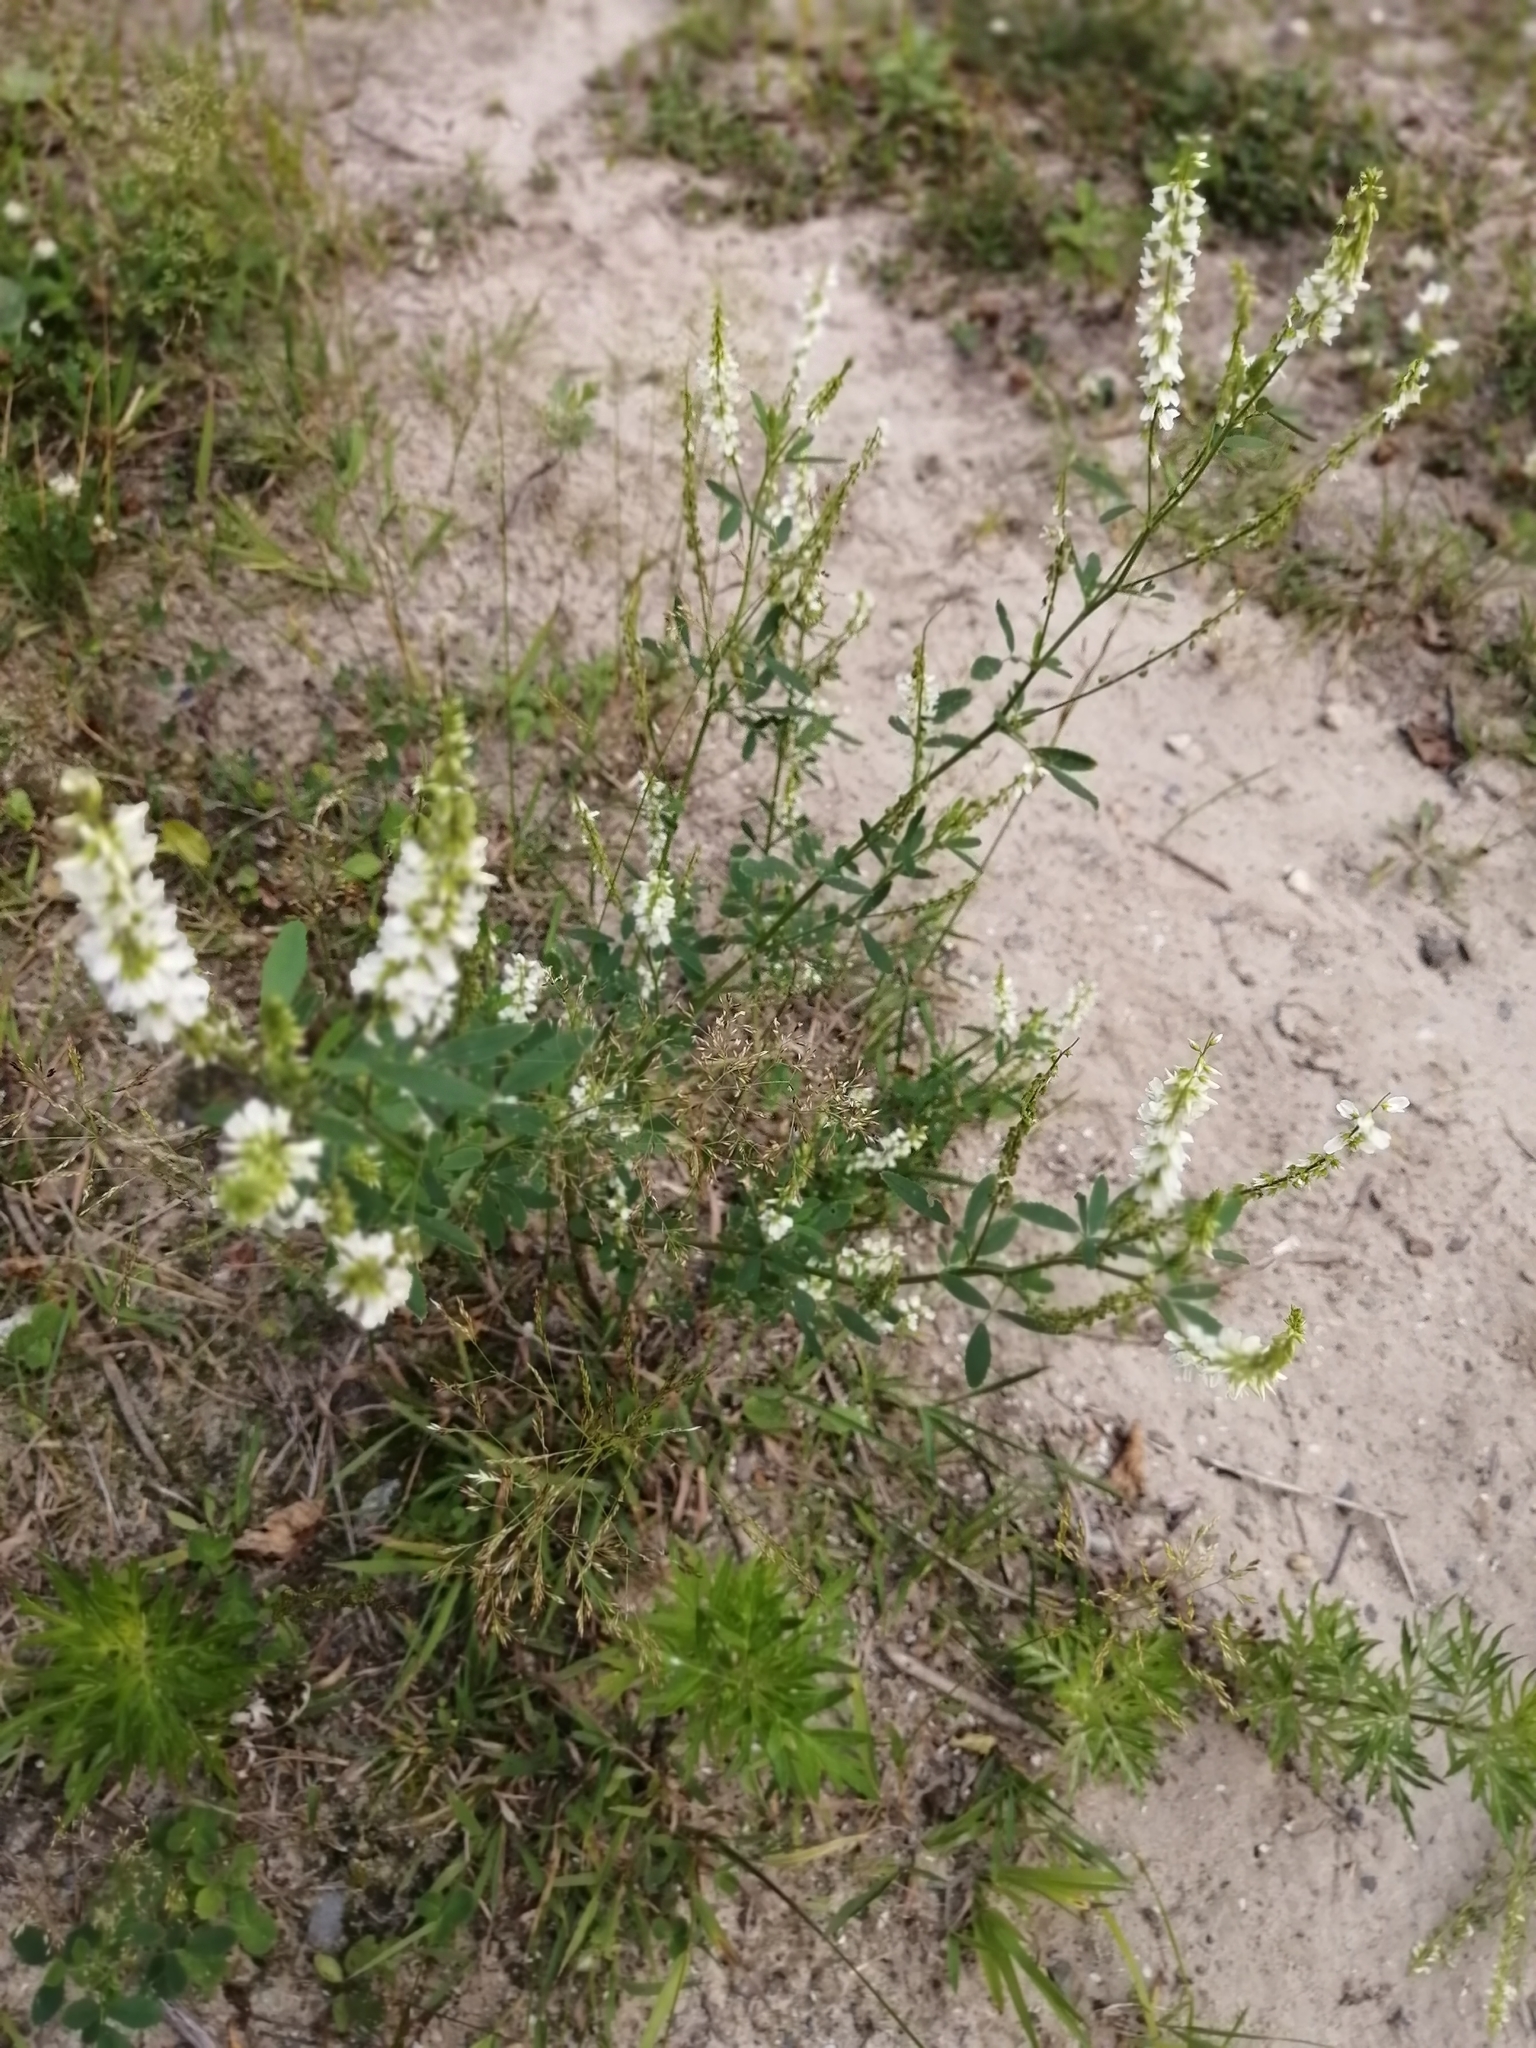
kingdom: Plantae
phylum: Tracheophyta
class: Magnoliopsida
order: Fabales
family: Fabaceae
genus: Melilotus
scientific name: Melilotus albus
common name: White melilot
